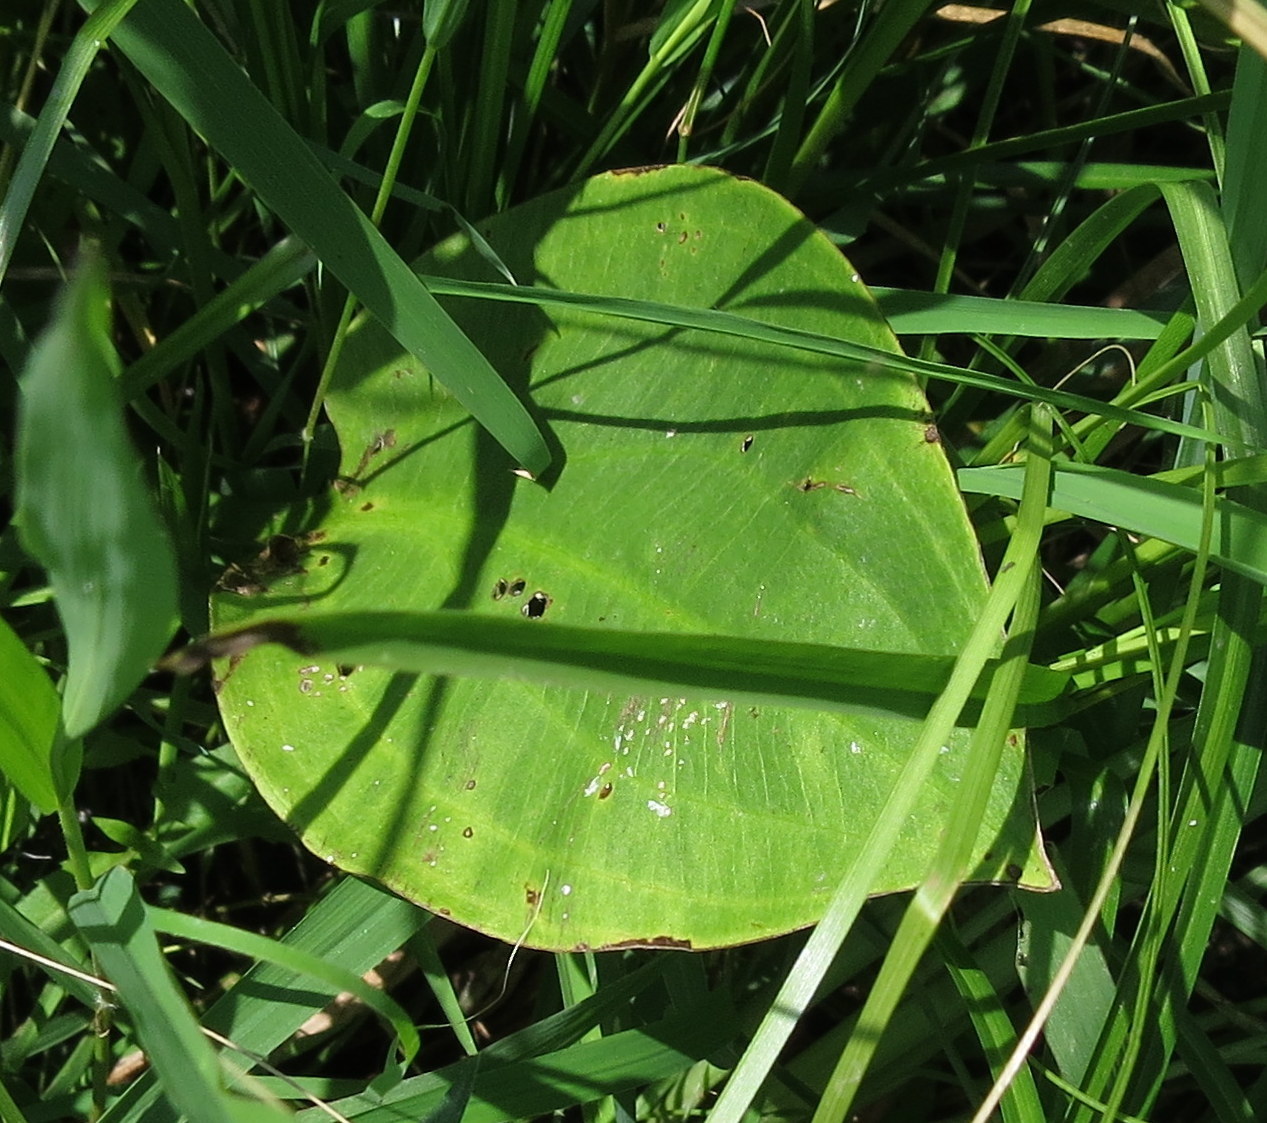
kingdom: Plantae
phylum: Tracheophyta
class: Liliopsida
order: Alismatales
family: Alismataceae
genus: Alisma
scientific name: Alisma triviale
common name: Northern water-plantain
